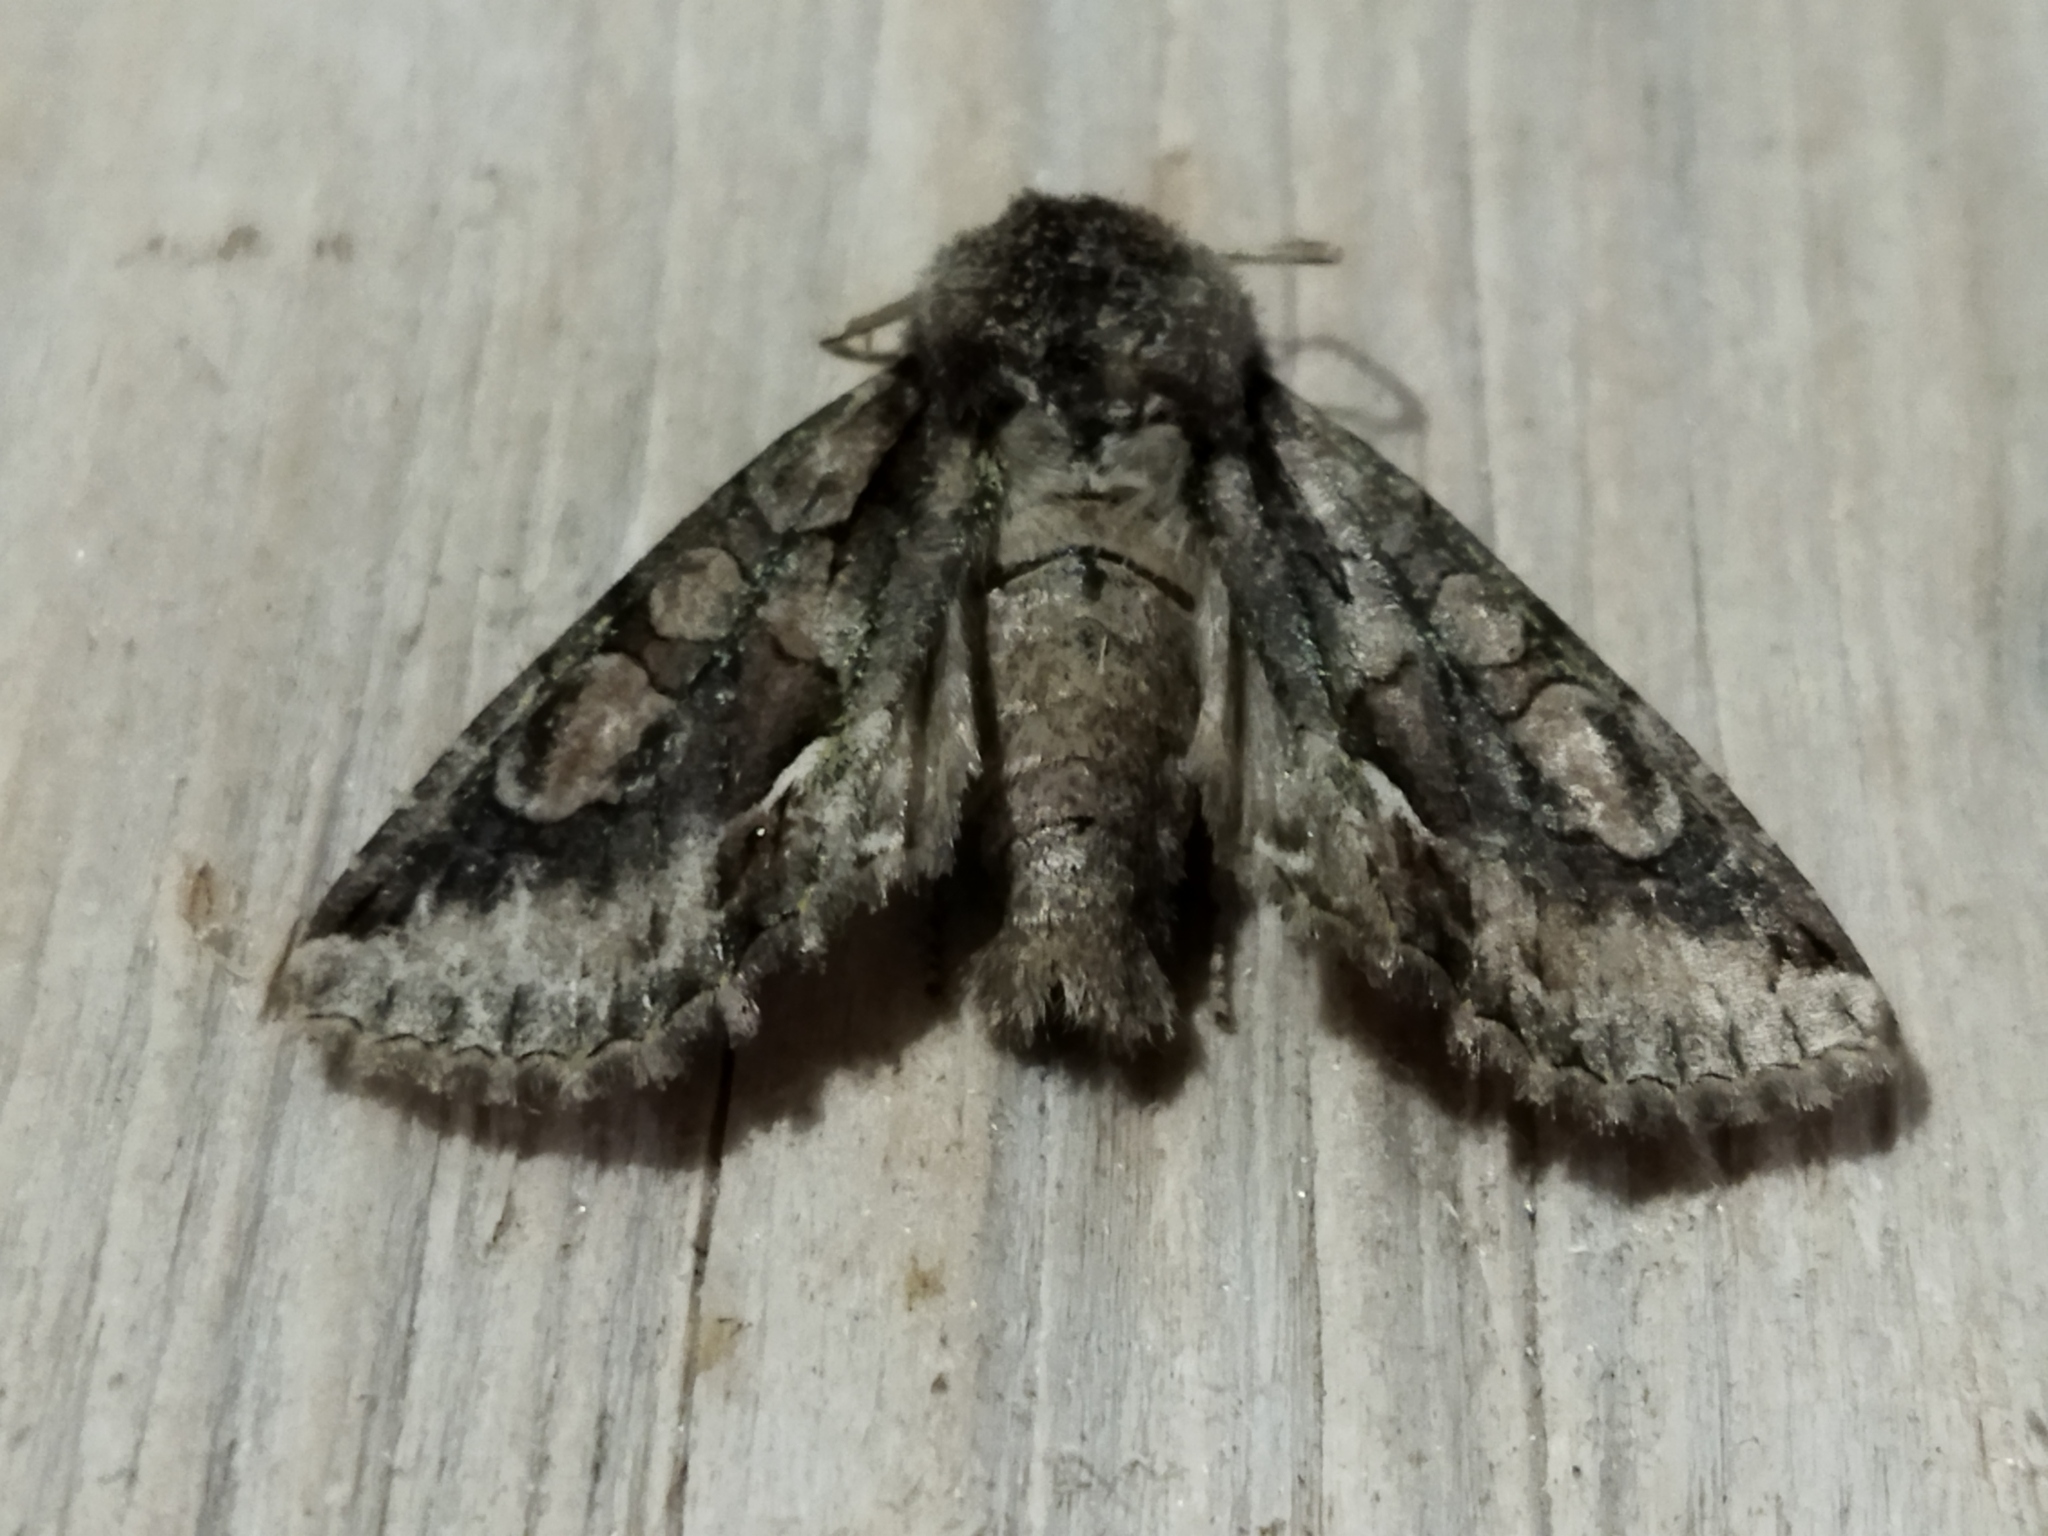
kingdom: Animalia
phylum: Arthropoda
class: Insecta
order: Lepidoptera
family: Noctuidae
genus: Allophyes
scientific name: Allophyes oxyacanthae
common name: Green-brindled crescent
